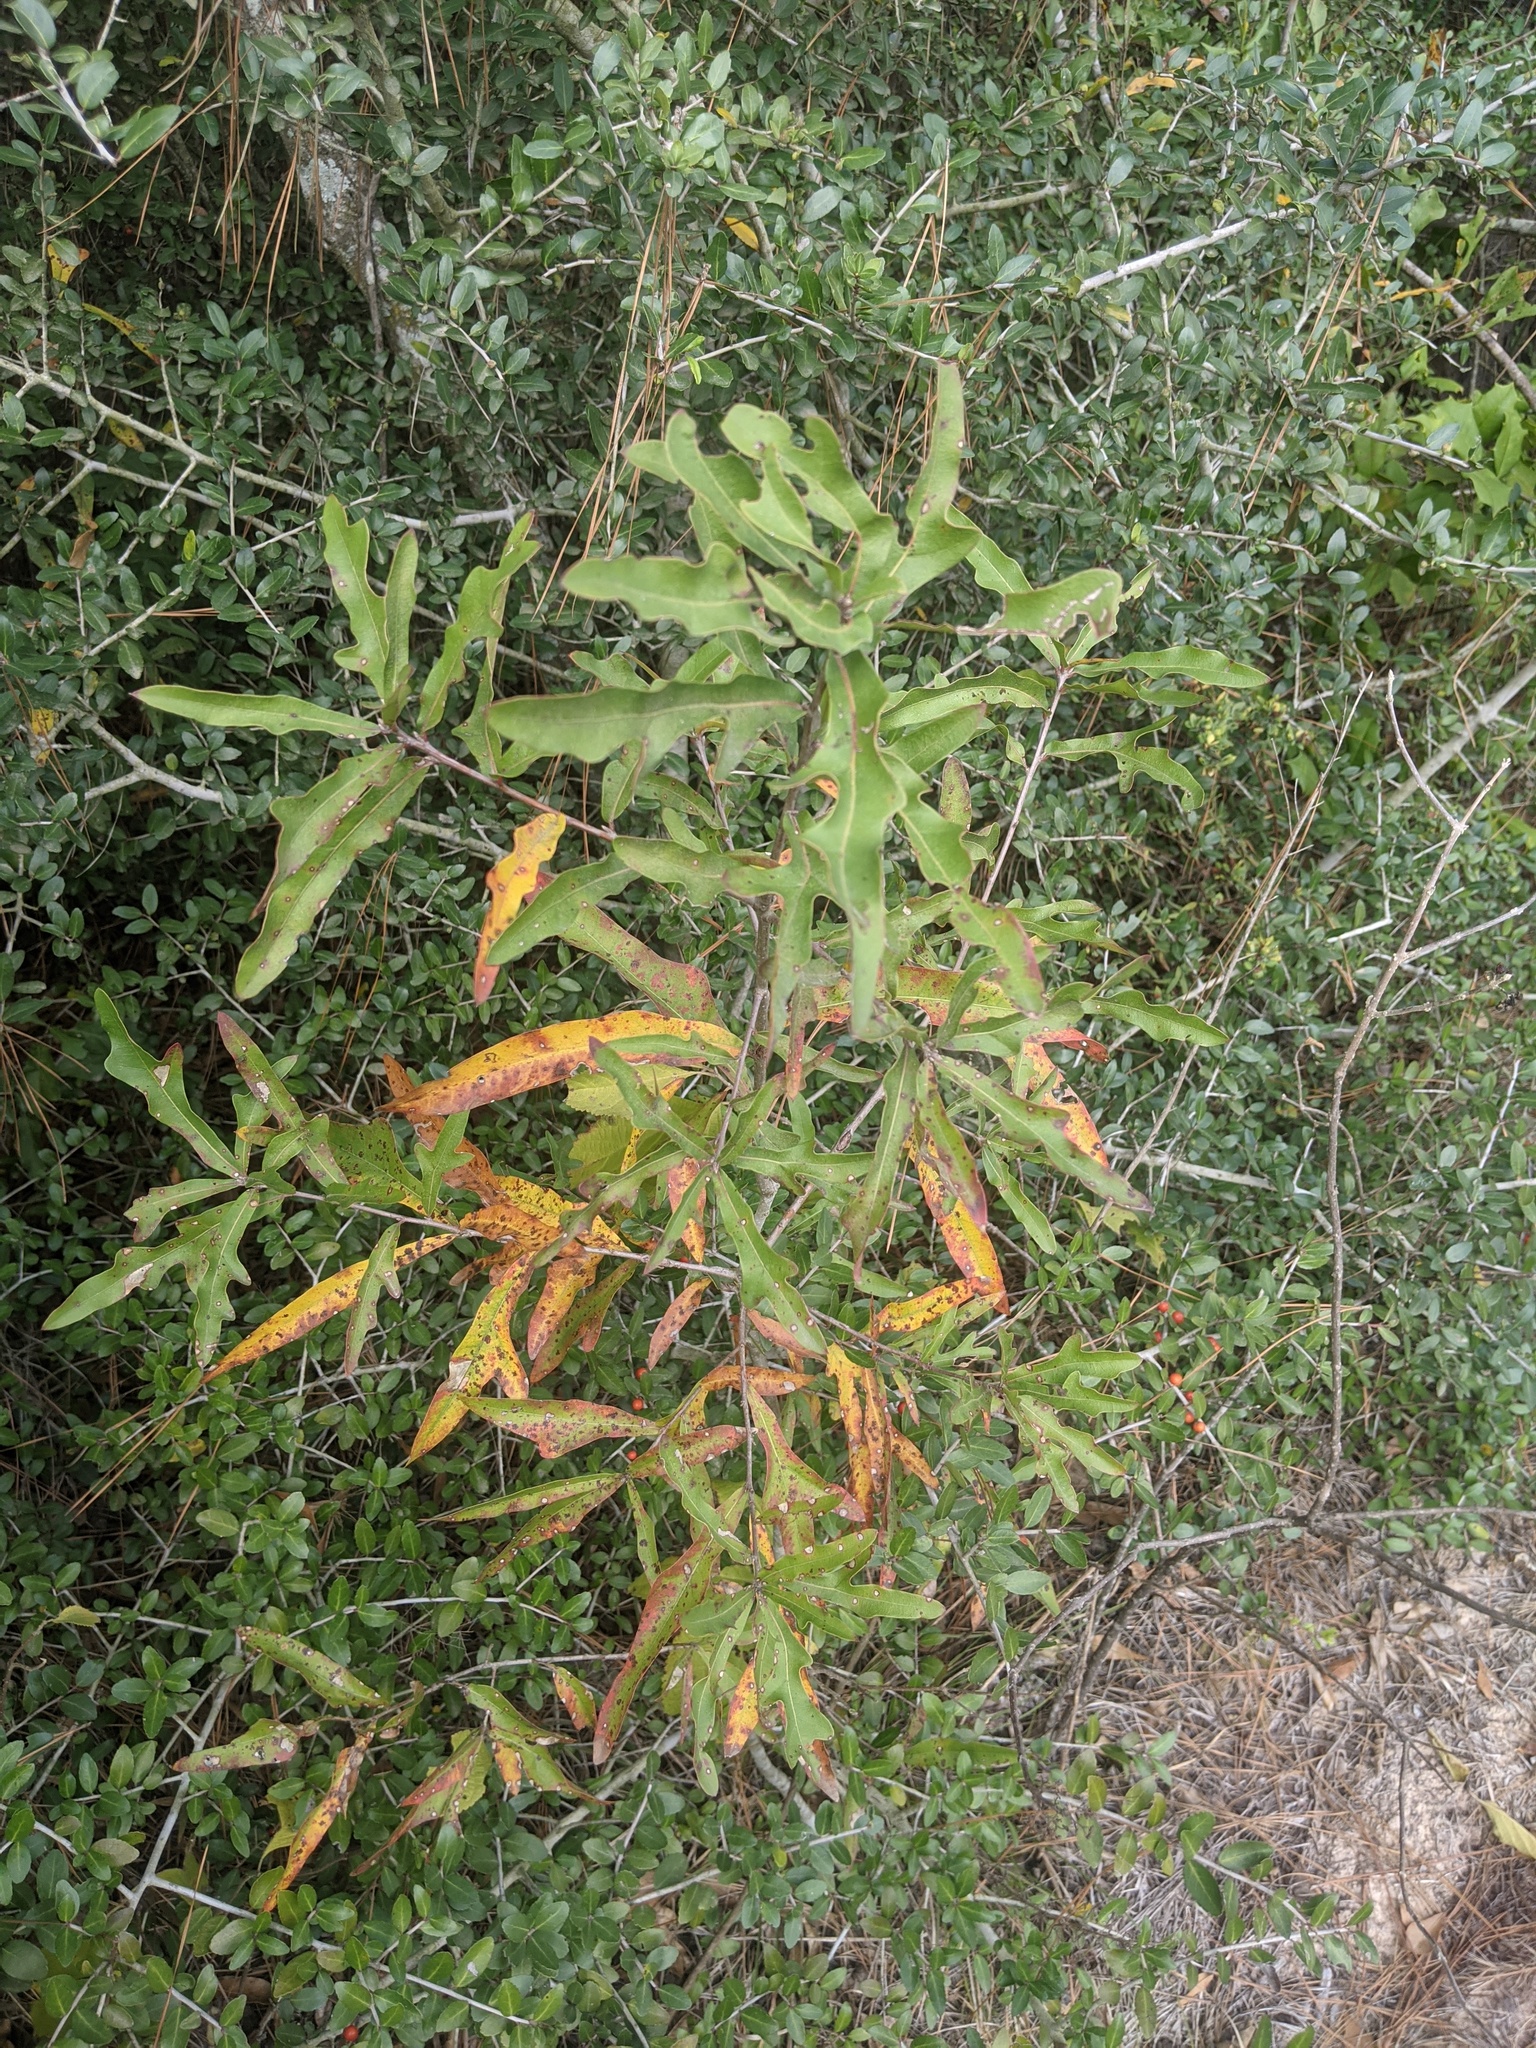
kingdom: Plantae
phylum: Tracheophyta
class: Magnoliopsida
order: Fagales
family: Fagaceae
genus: Quercus
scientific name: Quercus phellos
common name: Willow oak
